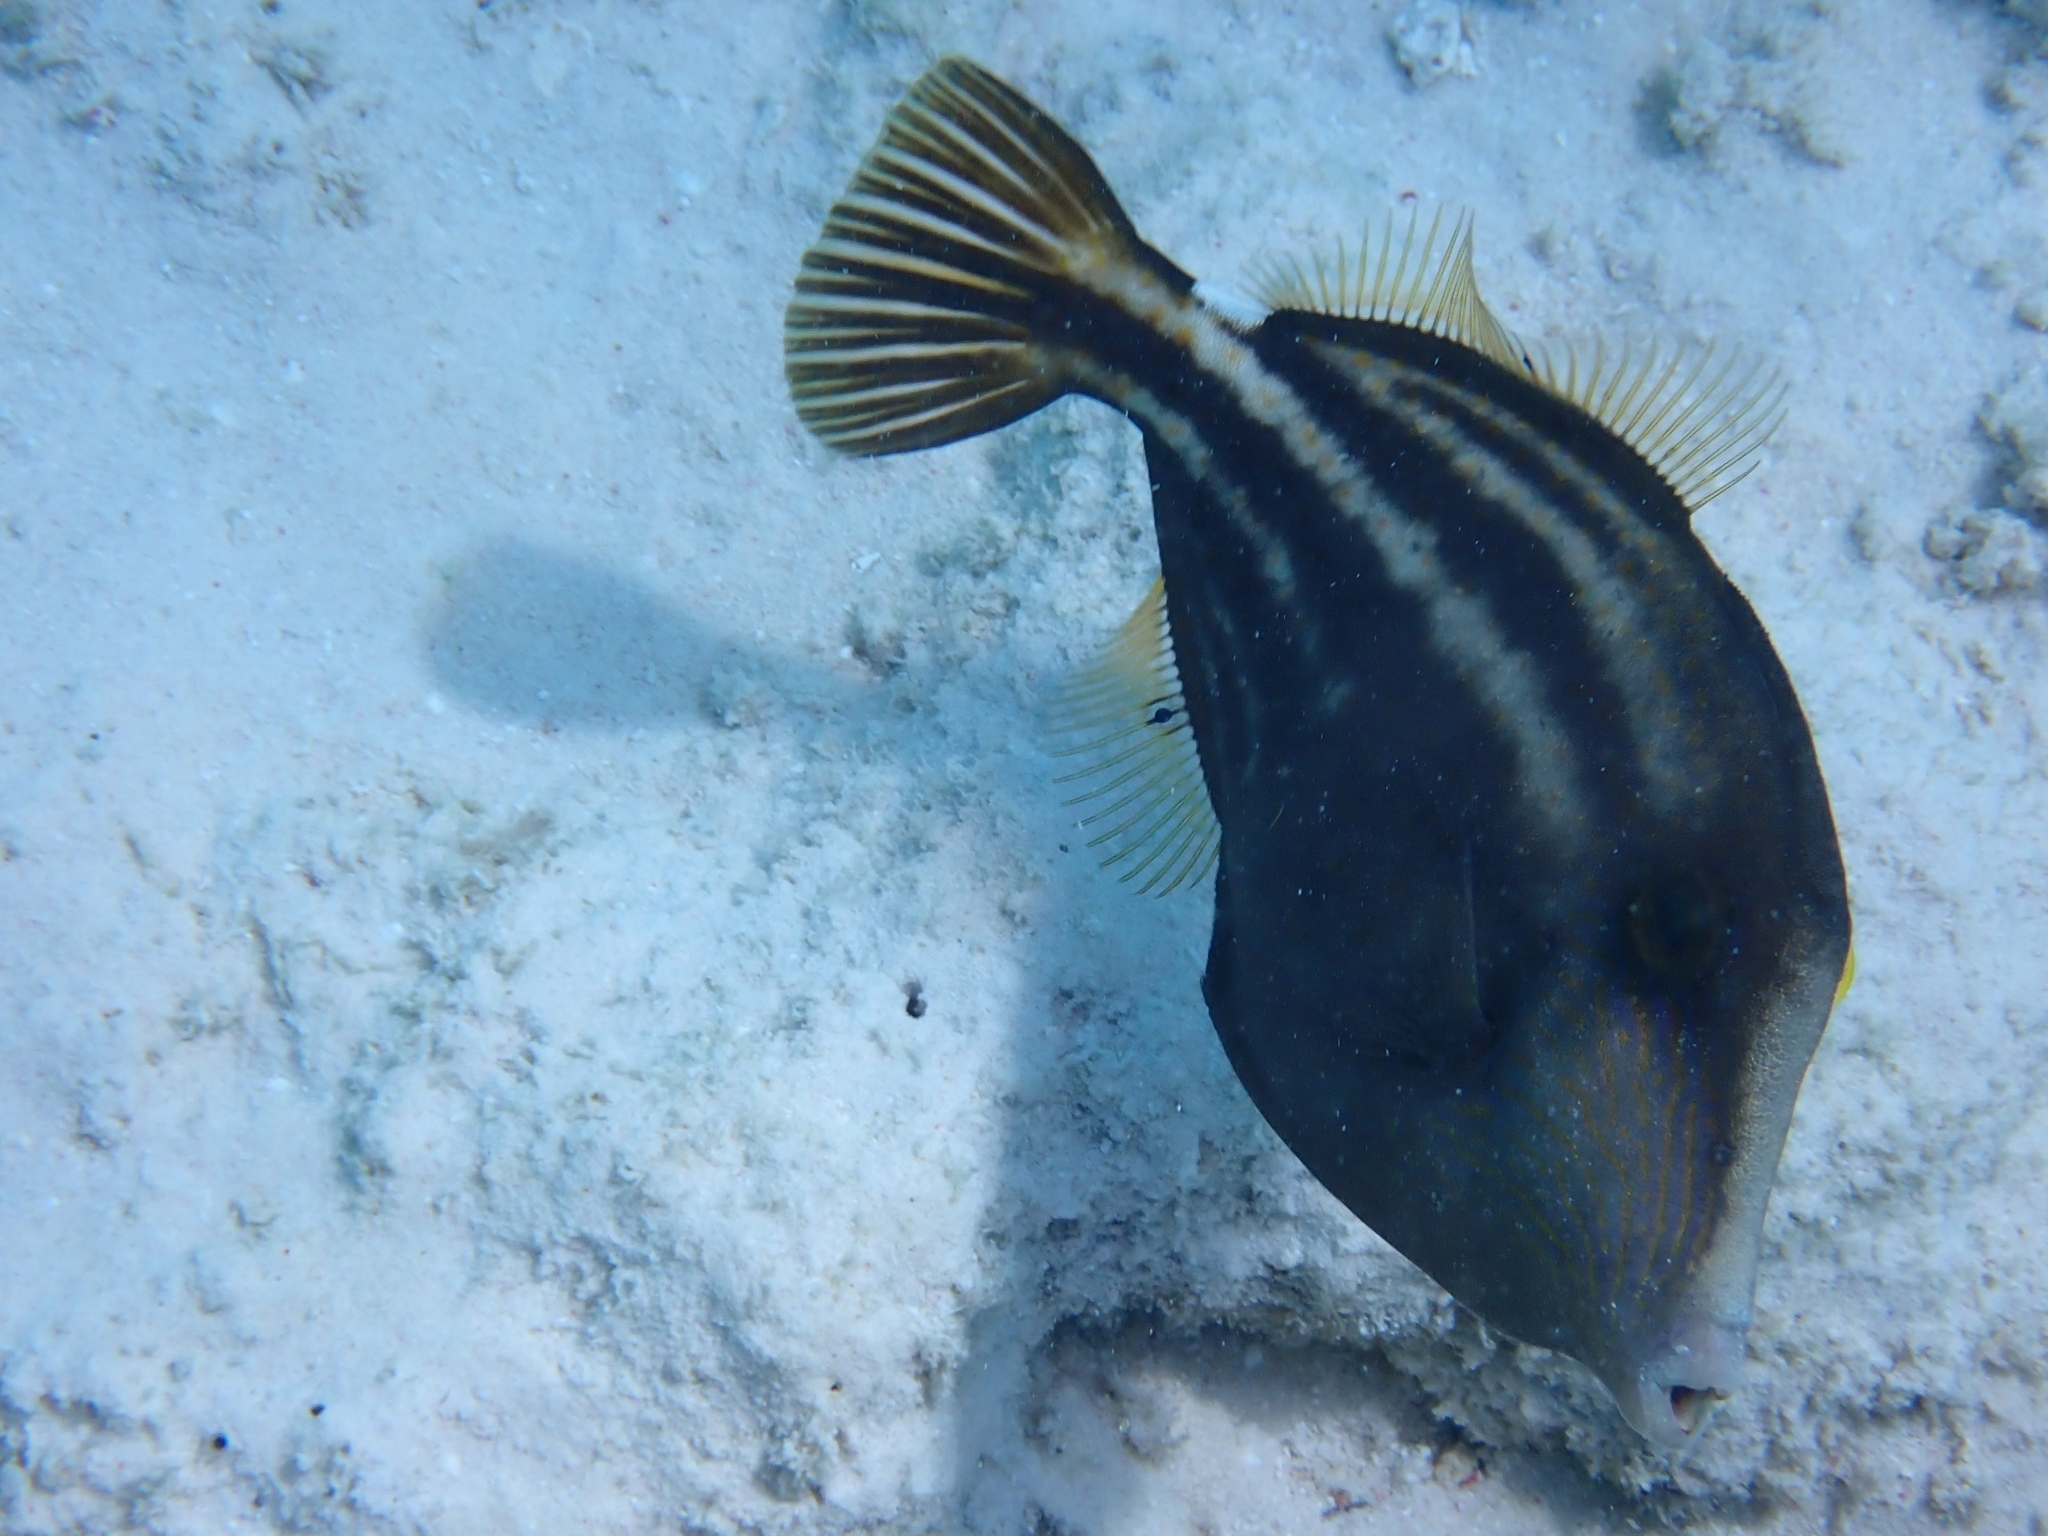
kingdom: Animalia
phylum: Chordata
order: Tetraodontiformes
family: Monacanthidae
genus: Cantherhines
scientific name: Cantherhines pullus
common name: Orangespotted filefish
